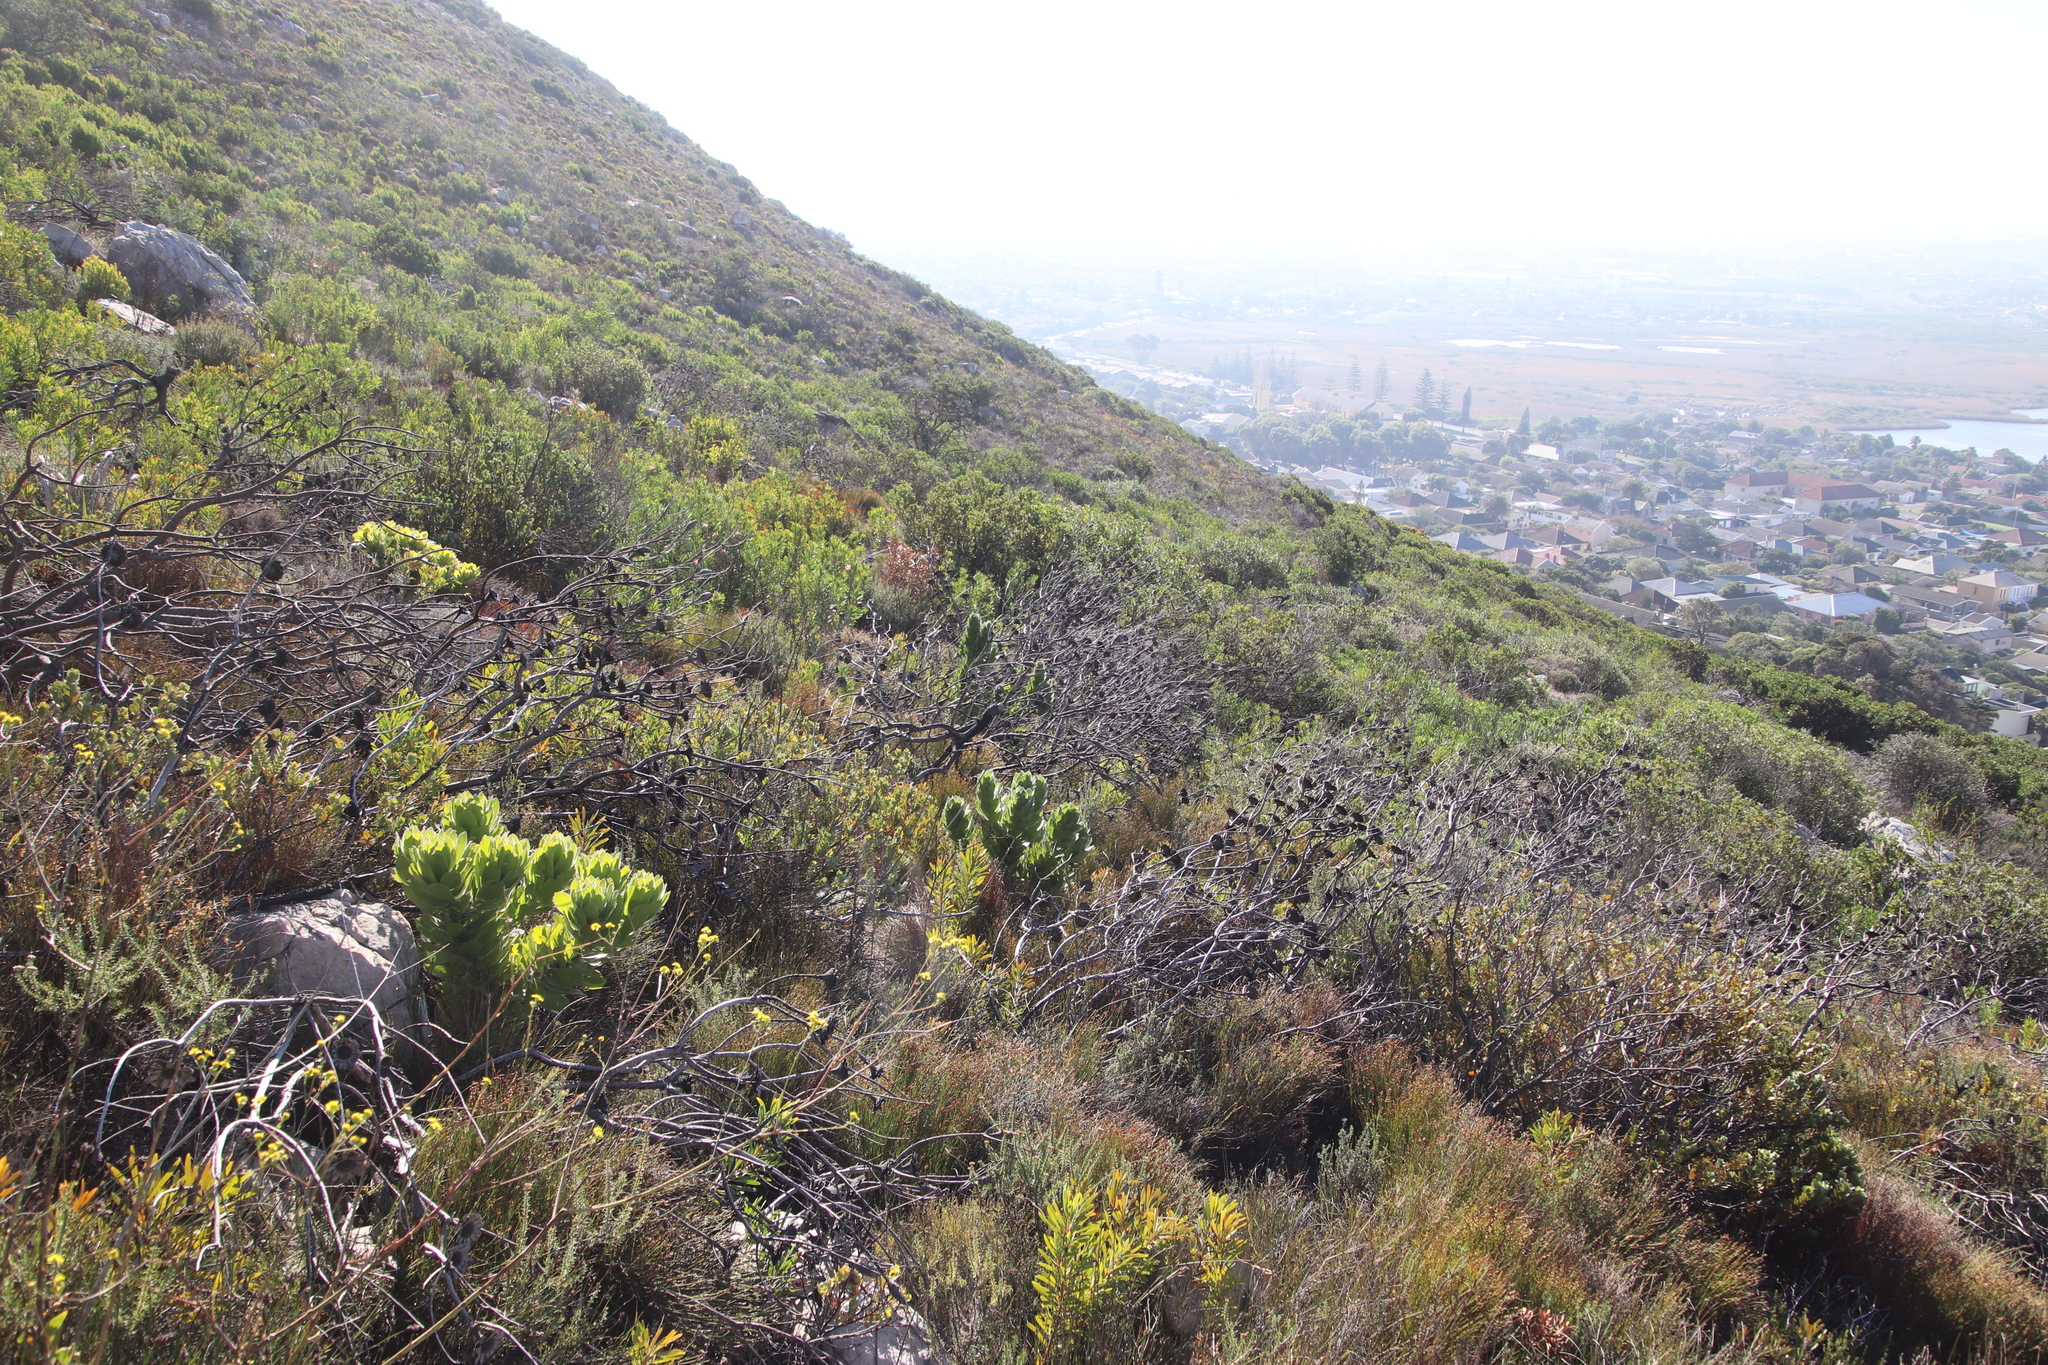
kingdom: Plantae
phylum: Tracheophyta
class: Magnoliopsida
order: Proteales
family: Proteaceae
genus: Leucospermum
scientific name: Leucospermum conocarpodendron
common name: Tree pincushion
